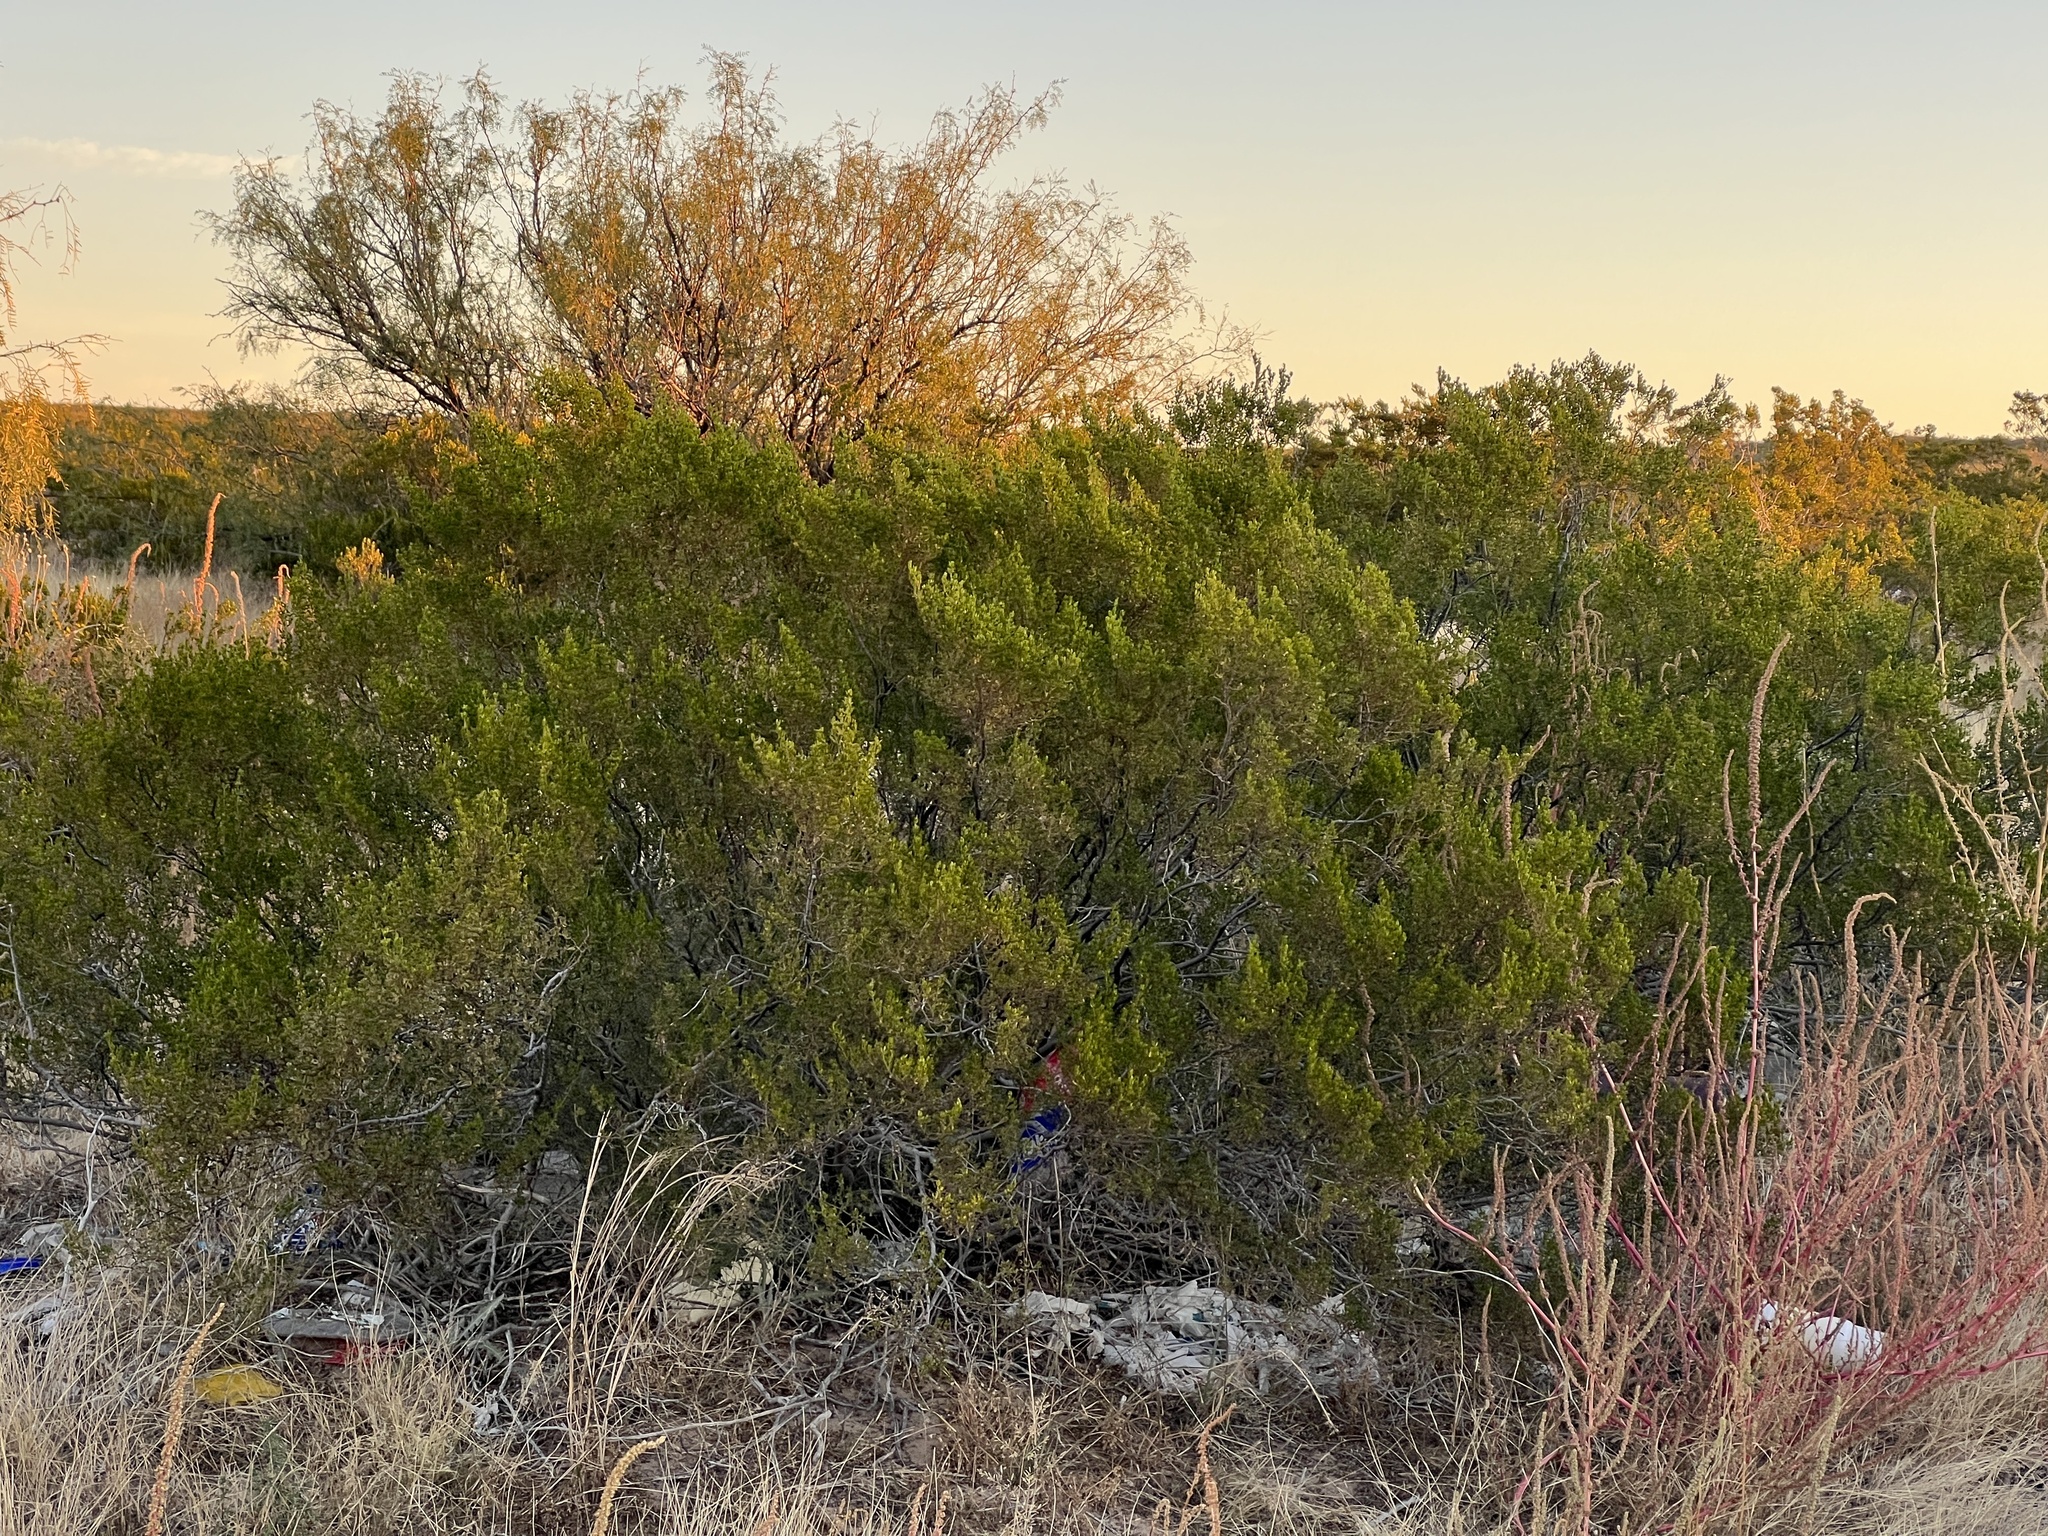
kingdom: Plantae
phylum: Tracheophyta
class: Magnoliopsida
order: Zygophyllales
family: Zygophyllaceae
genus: Larrea
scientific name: Larrea tridentata
